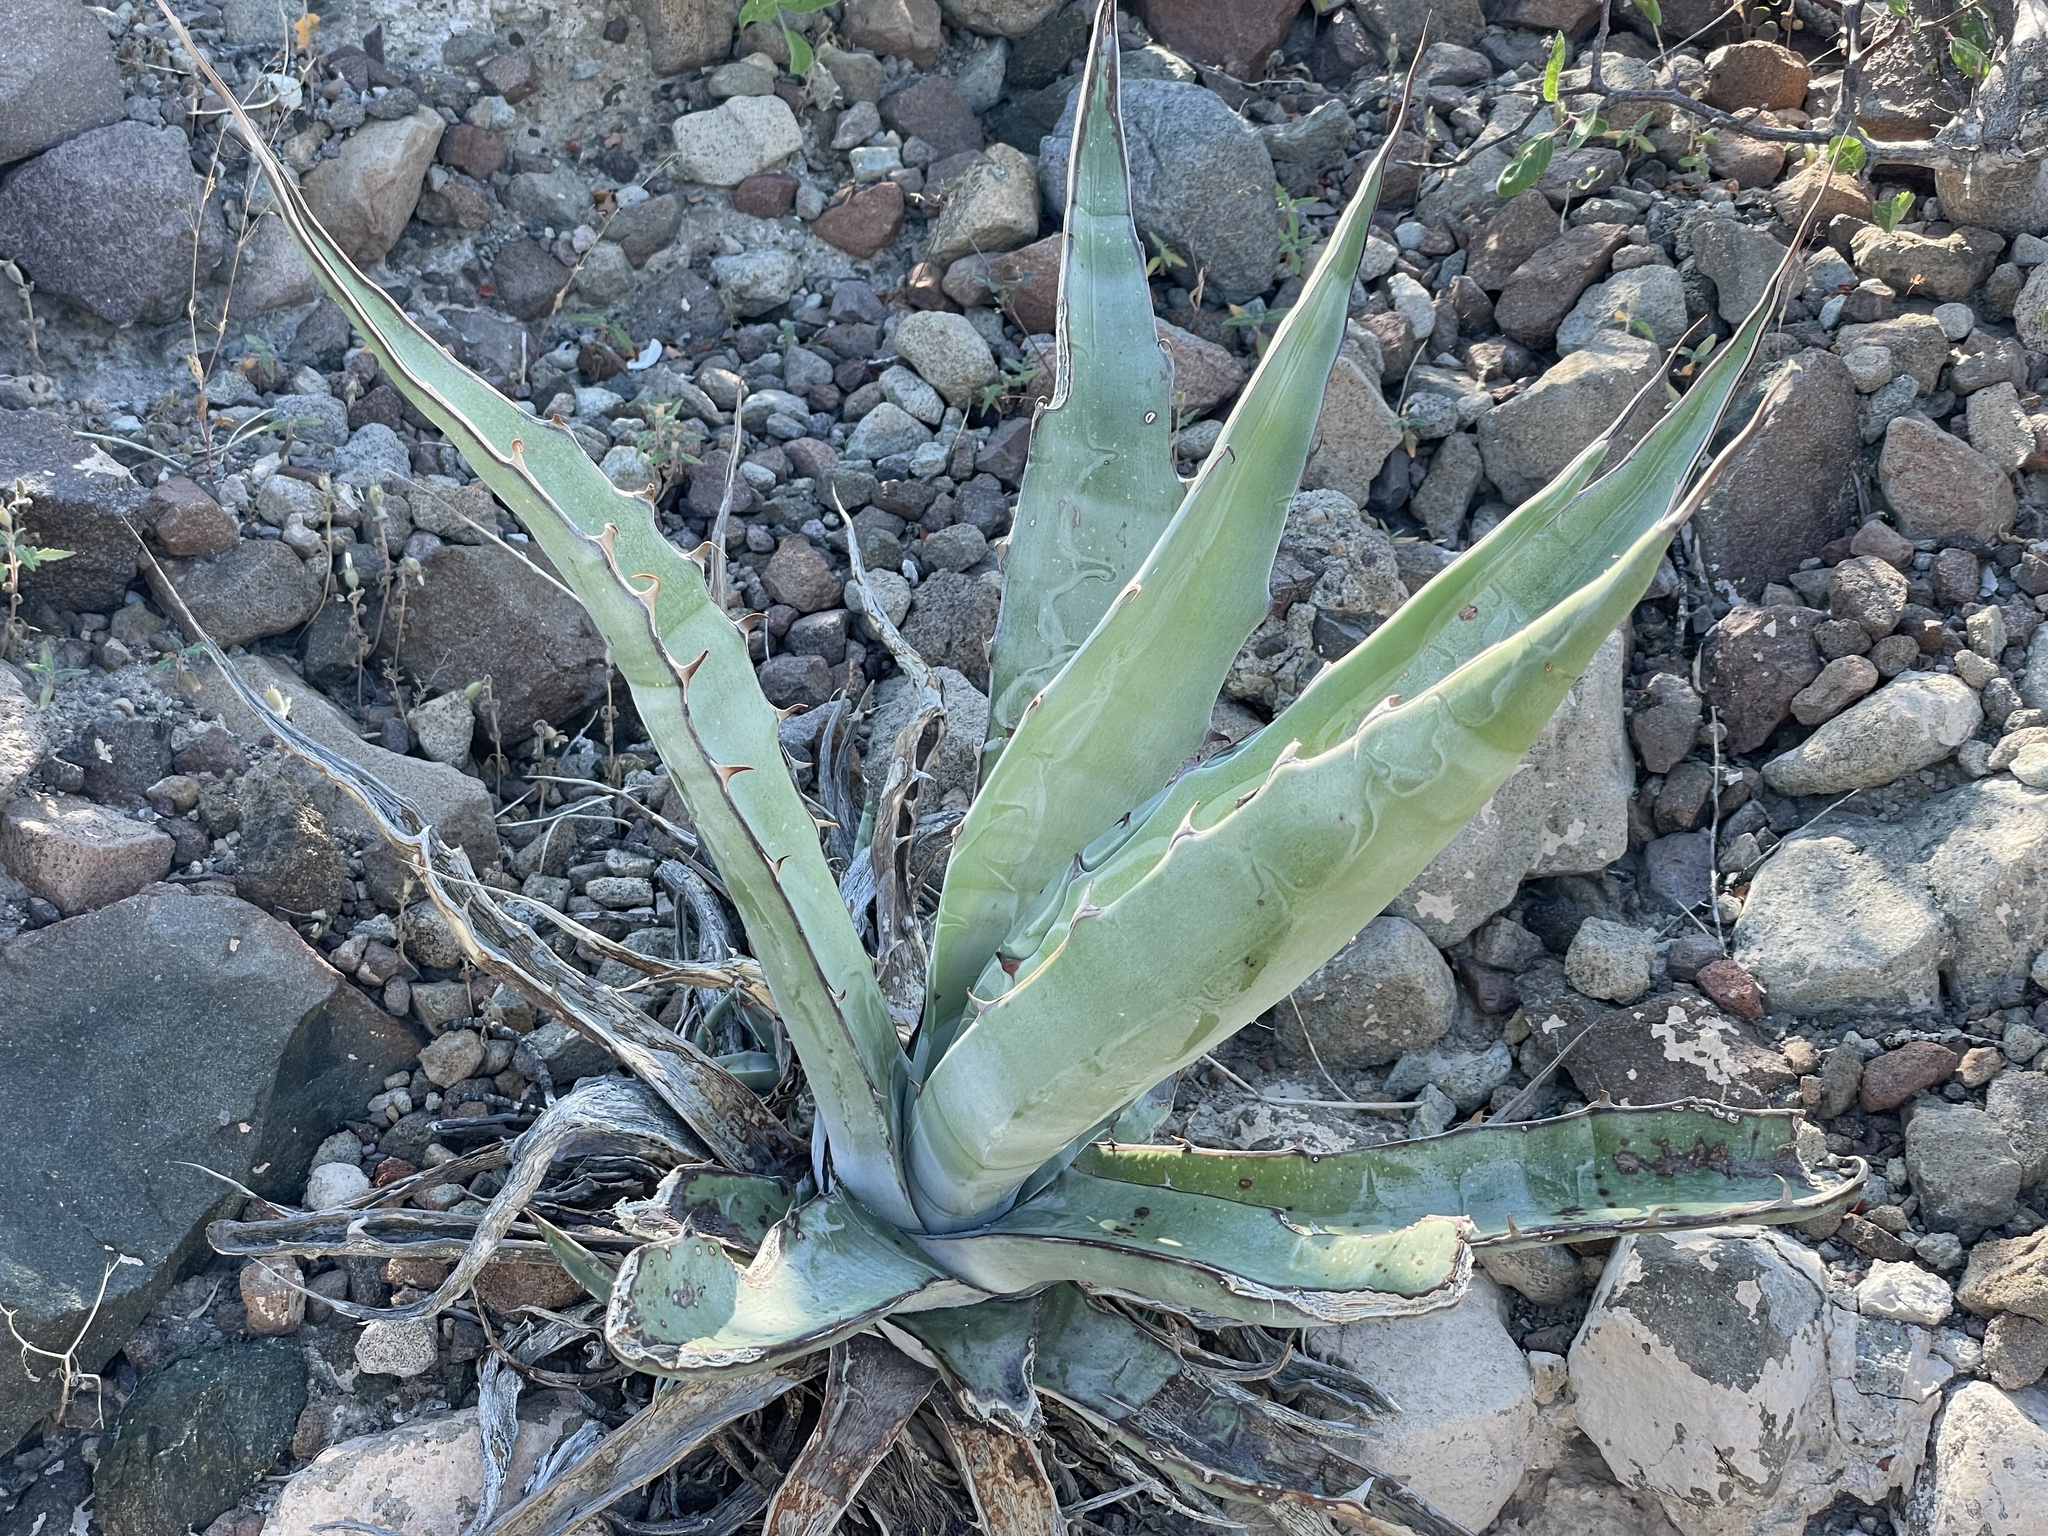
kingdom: Plantae
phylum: Tracheophyta
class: Liliopsida
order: Asparagales
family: Asparagaceae
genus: Agave
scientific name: Agave sobria
